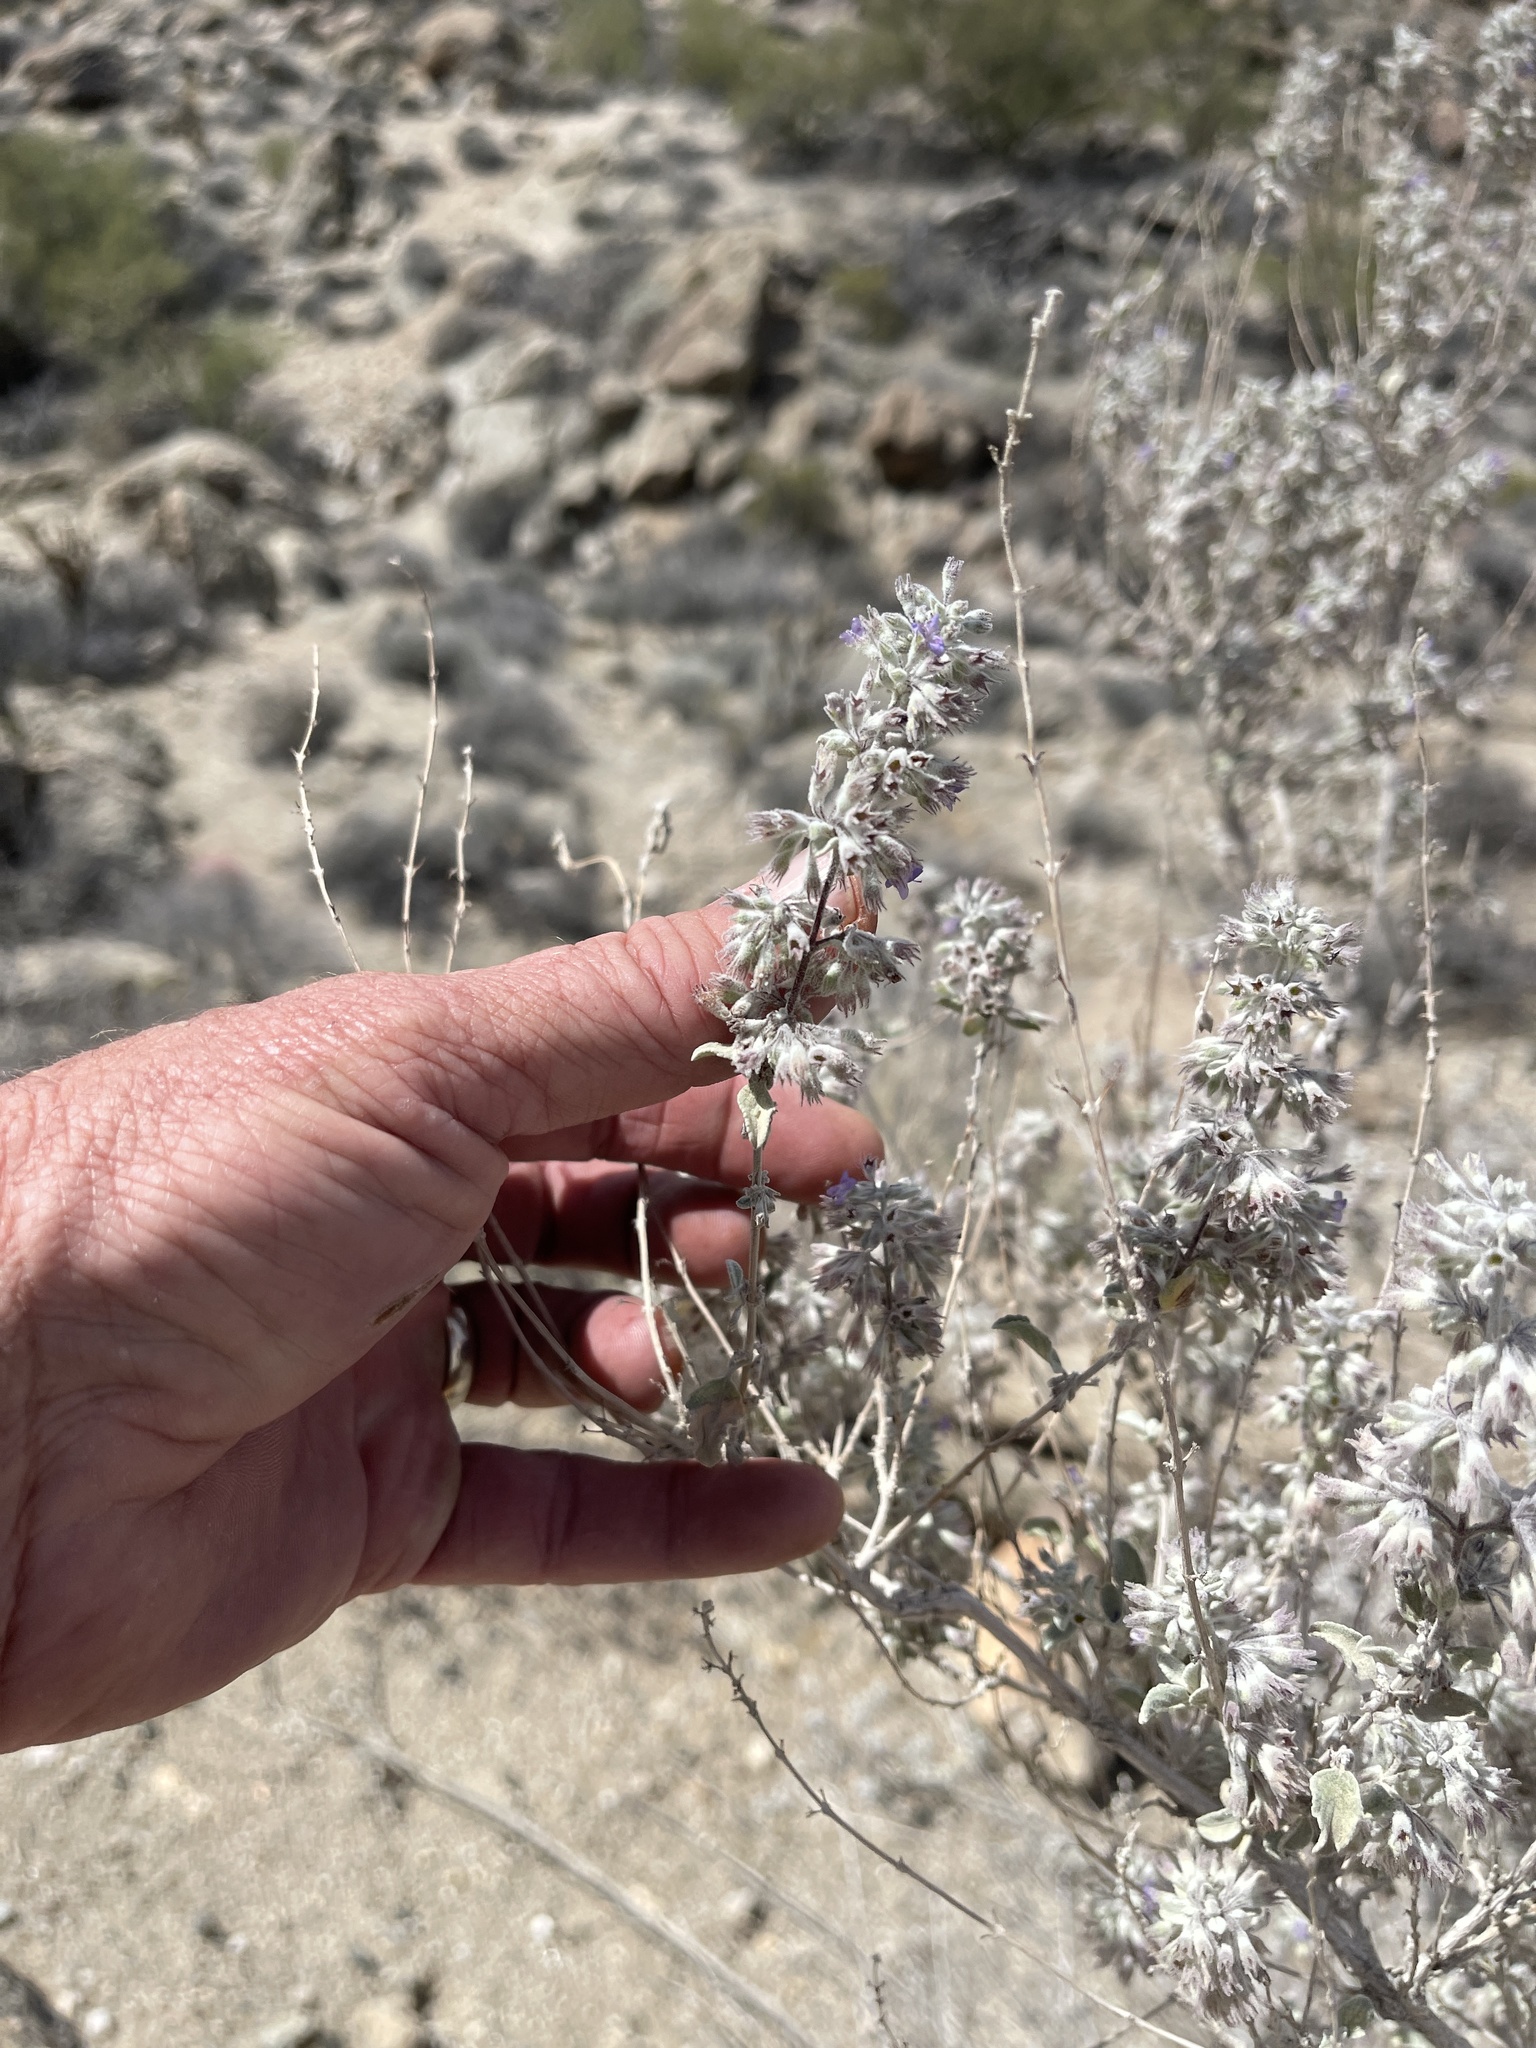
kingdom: Plantae
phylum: Tracheophyta
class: Magnoliopsida
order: Lamiales
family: Lamiaceae
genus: Condea
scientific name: Condea emoryi
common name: Chia
